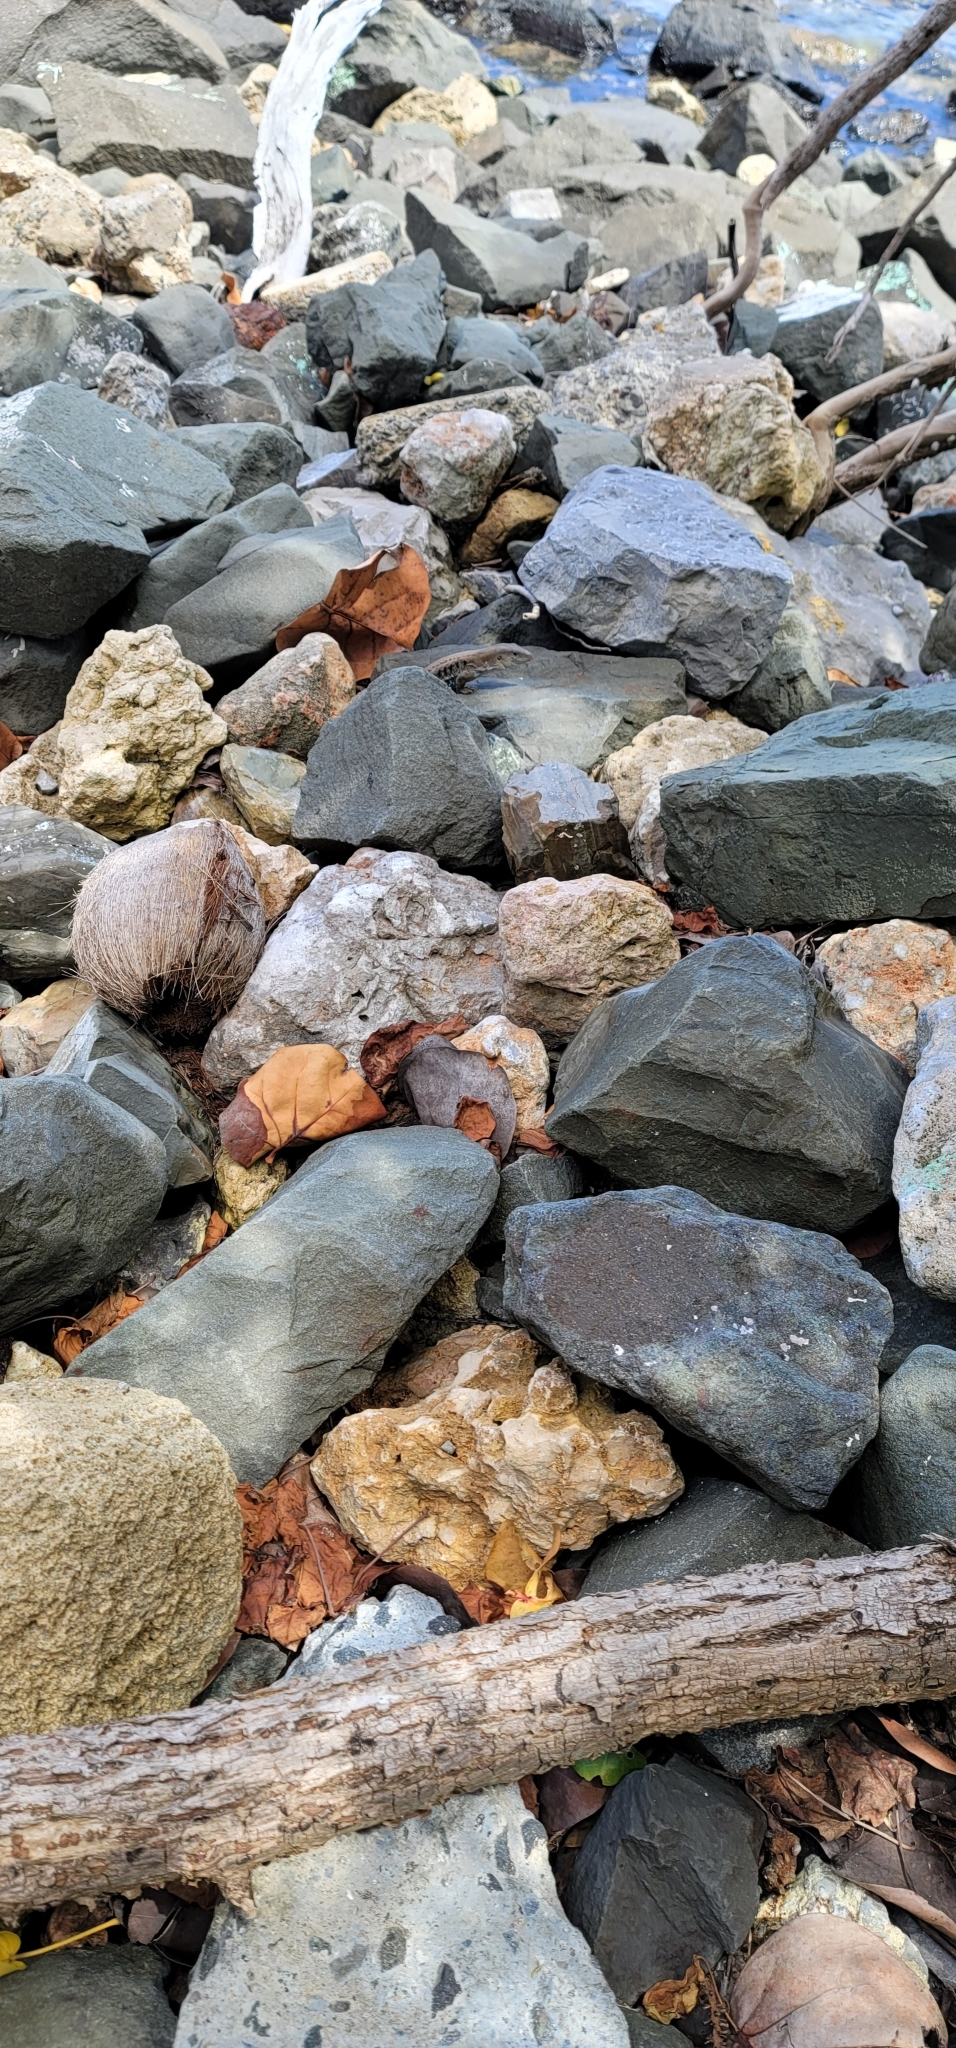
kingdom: Animalia
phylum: Chordata
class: Squamata
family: Teiidae
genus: Pholidoscelis
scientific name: Pholidoscelis exsul
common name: Common puerto rican ameiva
